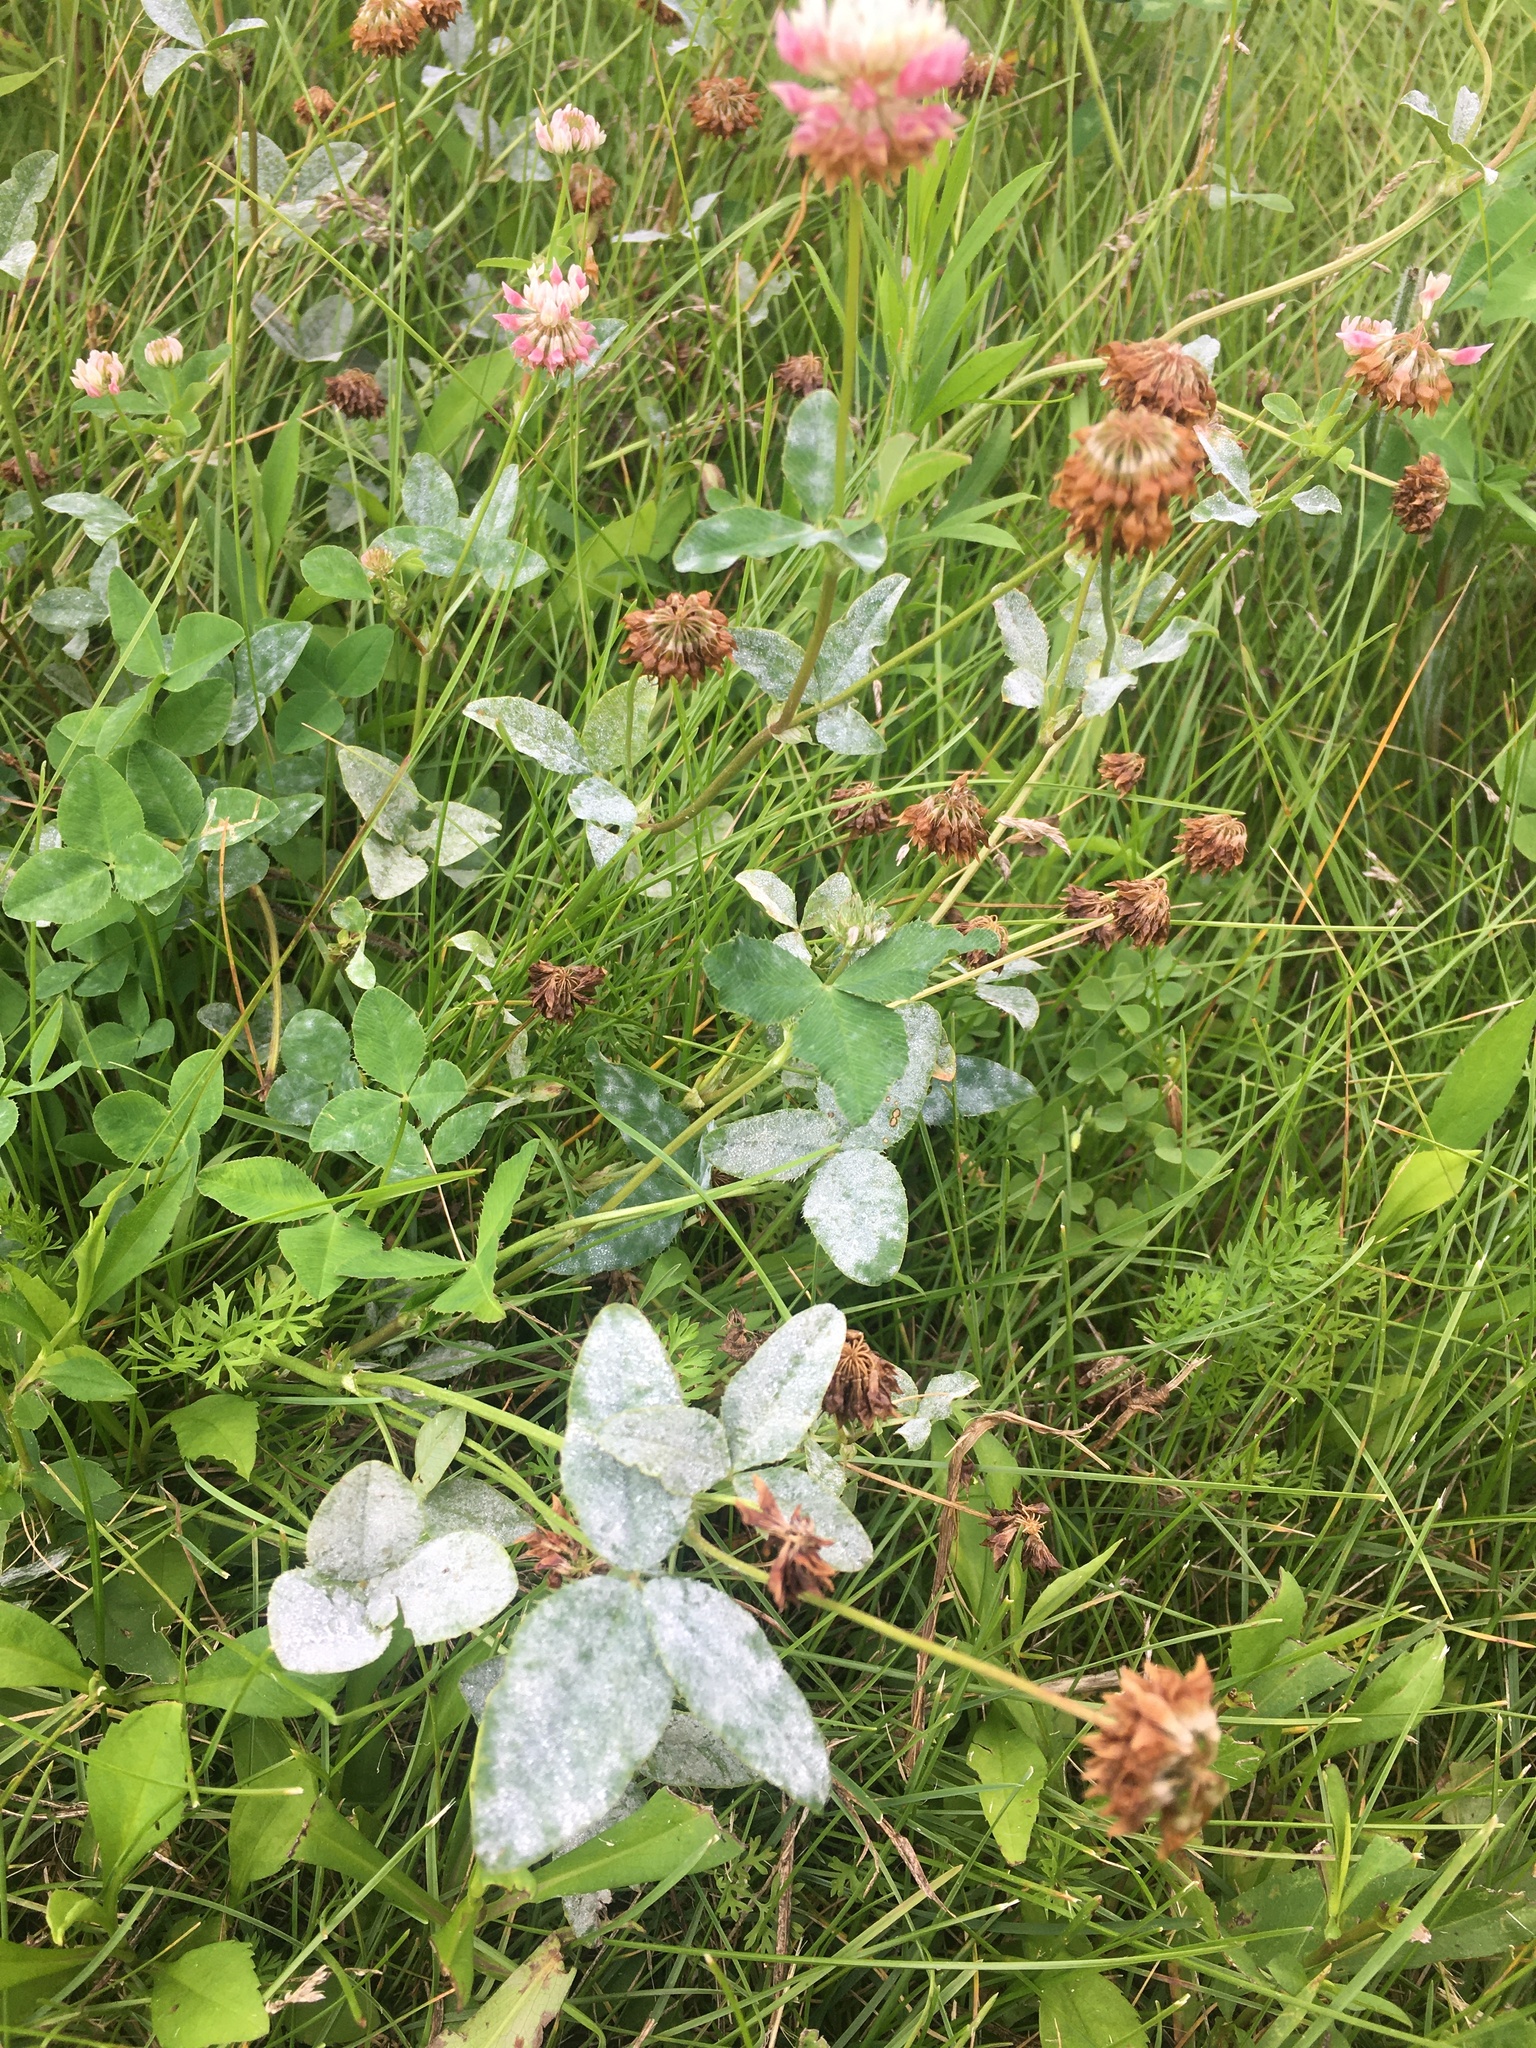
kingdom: Plantae
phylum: Tracheophyta
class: Magnoliopsida
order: Fabales
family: Fabaceae
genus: Trifolium
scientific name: Trifolium hybridum
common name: Alsike clover
